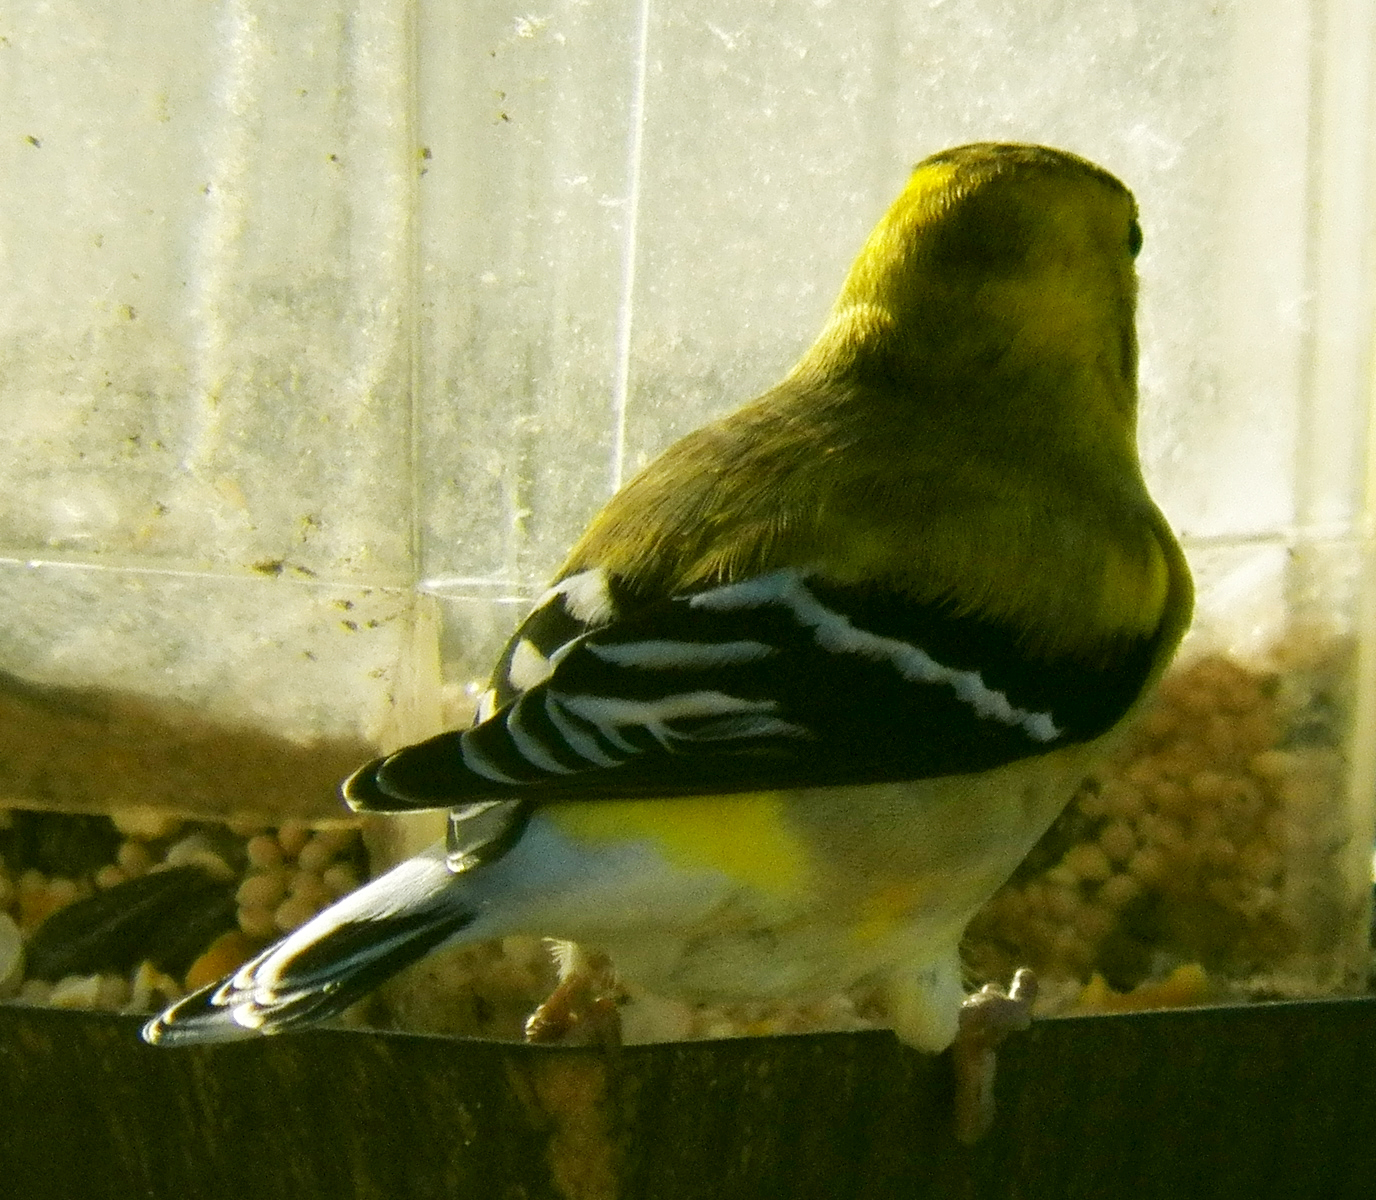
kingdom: Animalia
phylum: Chordata
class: Aves
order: Passeriformes
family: Fringillidae
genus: Spinus
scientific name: Spinus tristis
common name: American goldfinch
